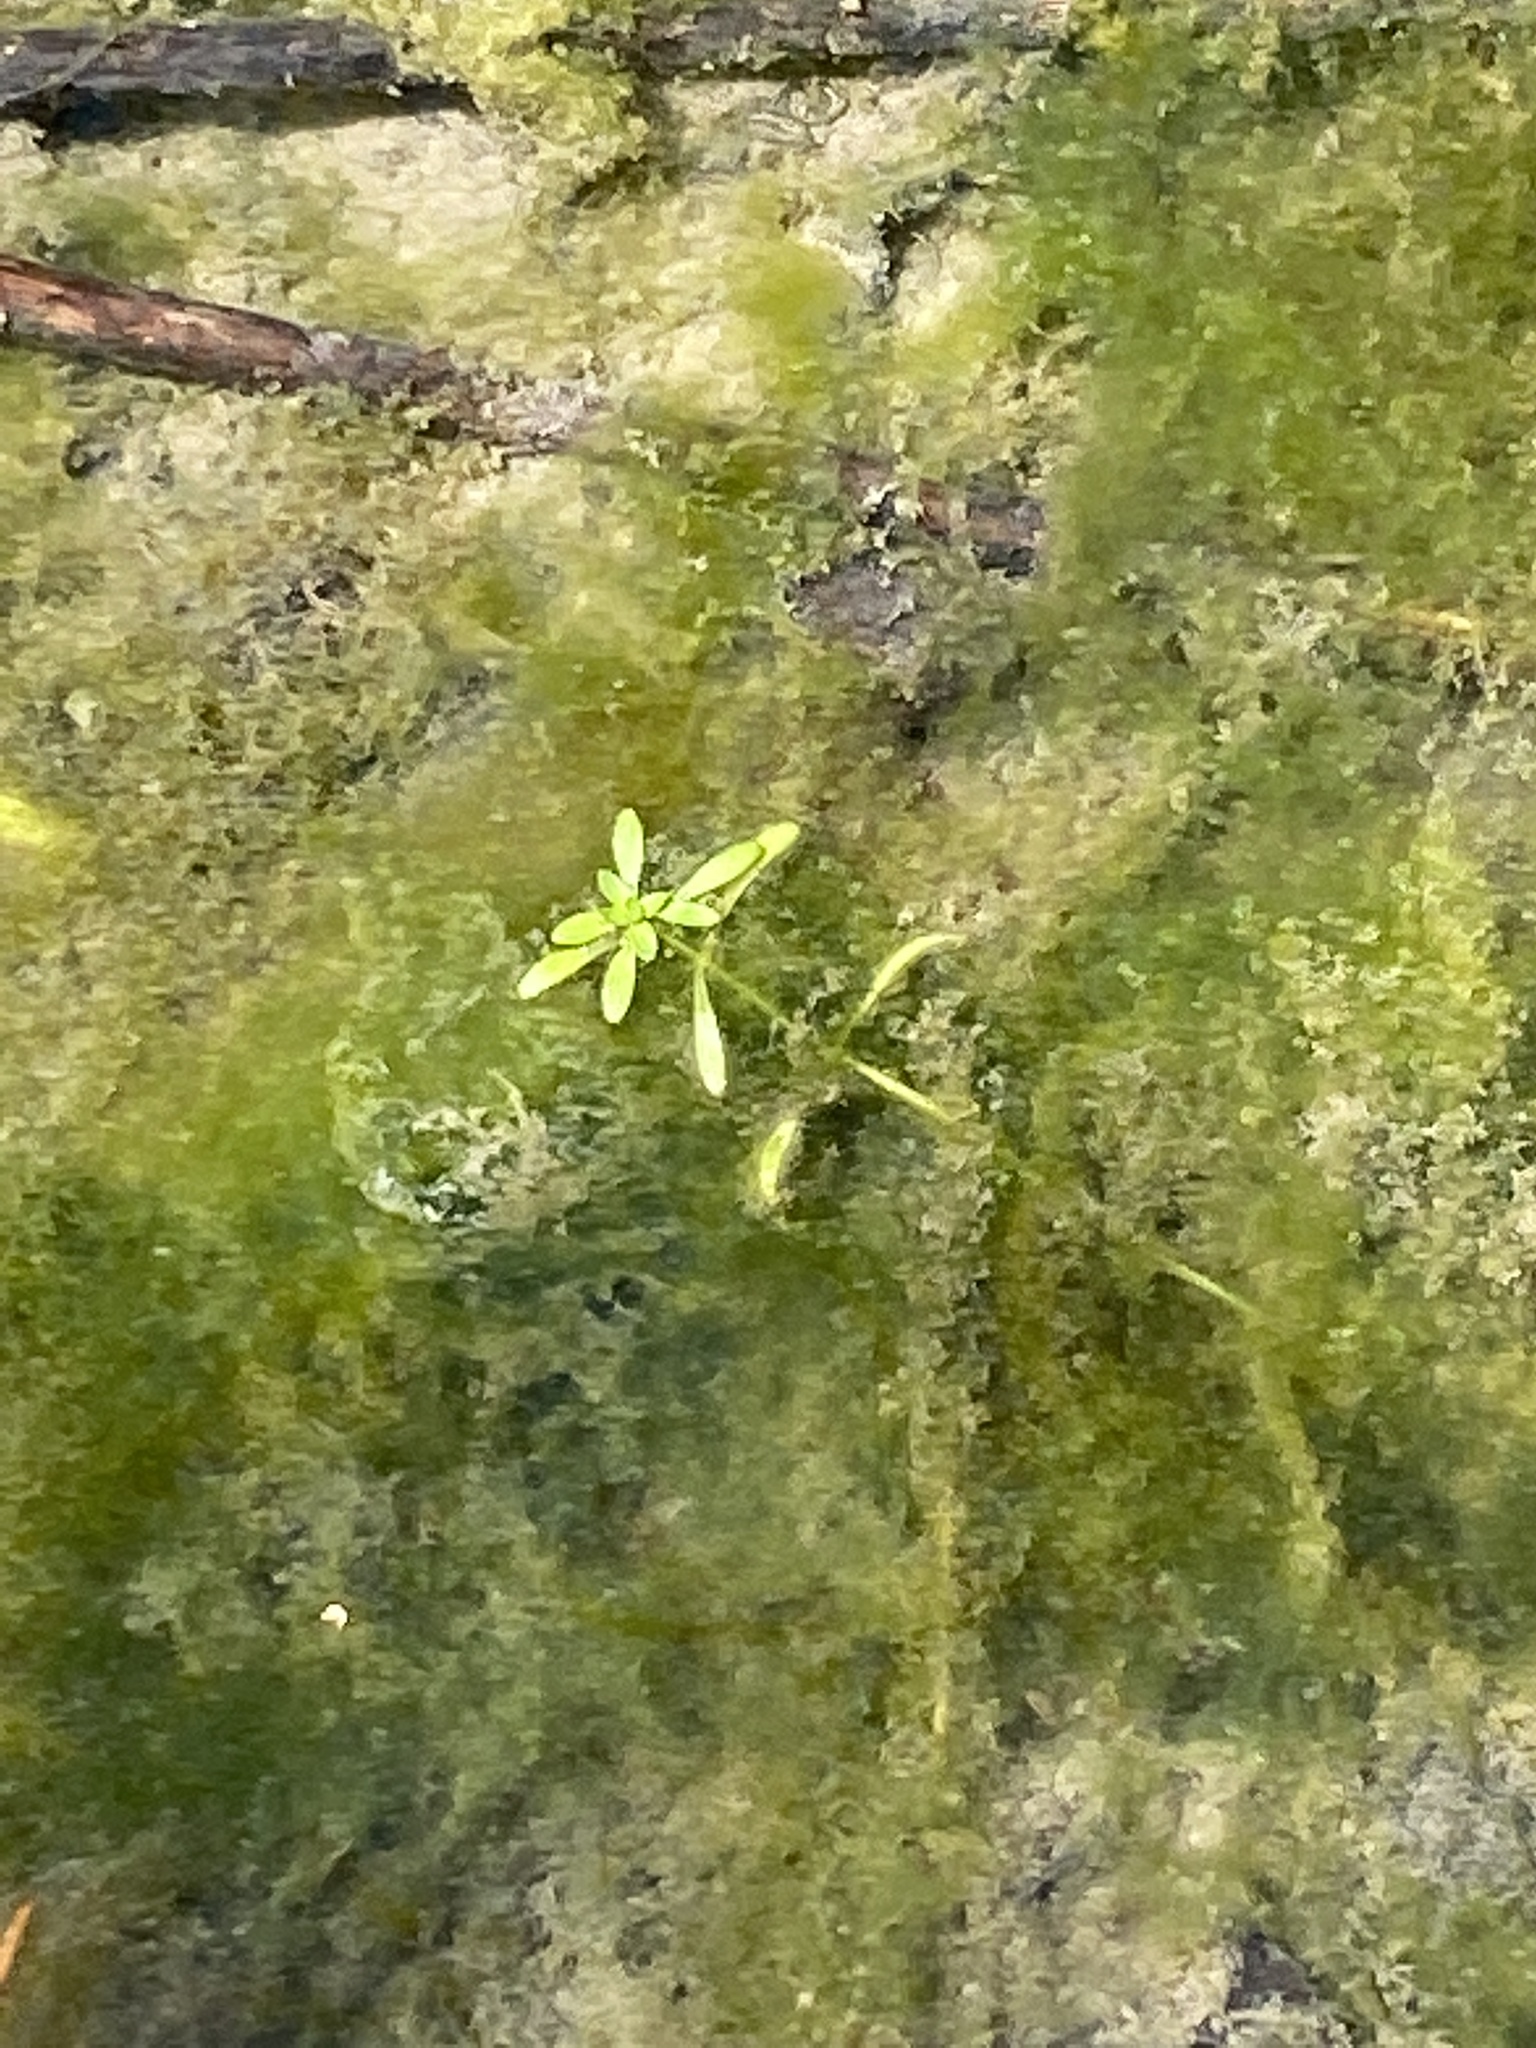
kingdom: Plantae
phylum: Tracheophyta
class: Magnoliopsida
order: Lamiales
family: Plantaginaceae
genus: Callitriche
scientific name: Callitriche heterophylla
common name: Two-headed water-starwort
